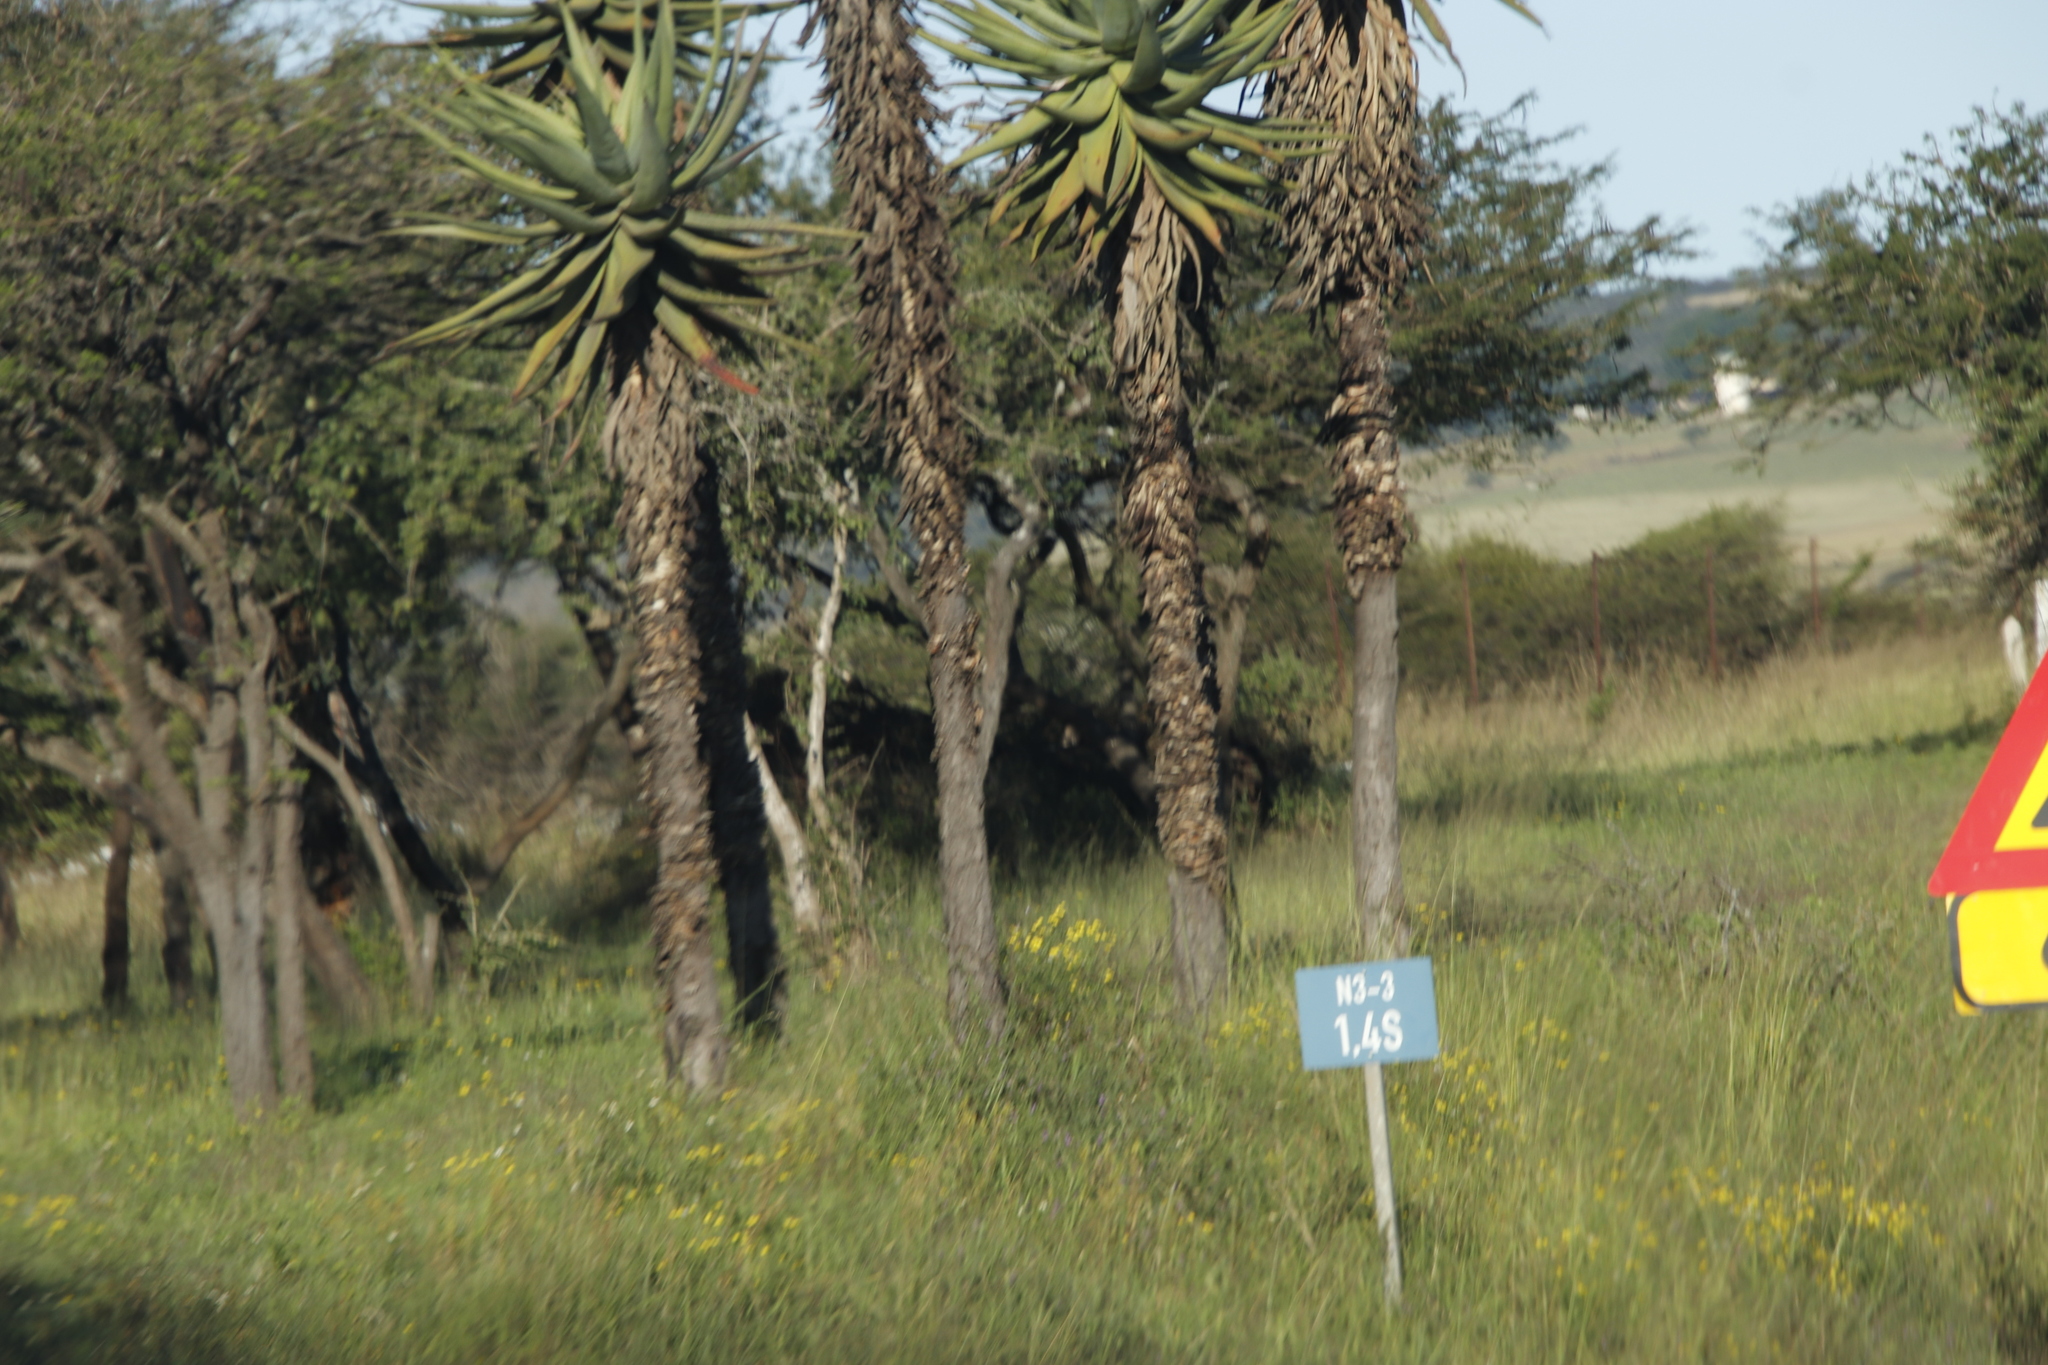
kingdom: Plantae
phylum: Tracheophyta
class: Magnoliopsida
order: Asterales
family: Asteraceae
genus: Senecio
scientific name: Senecio brachypodus
